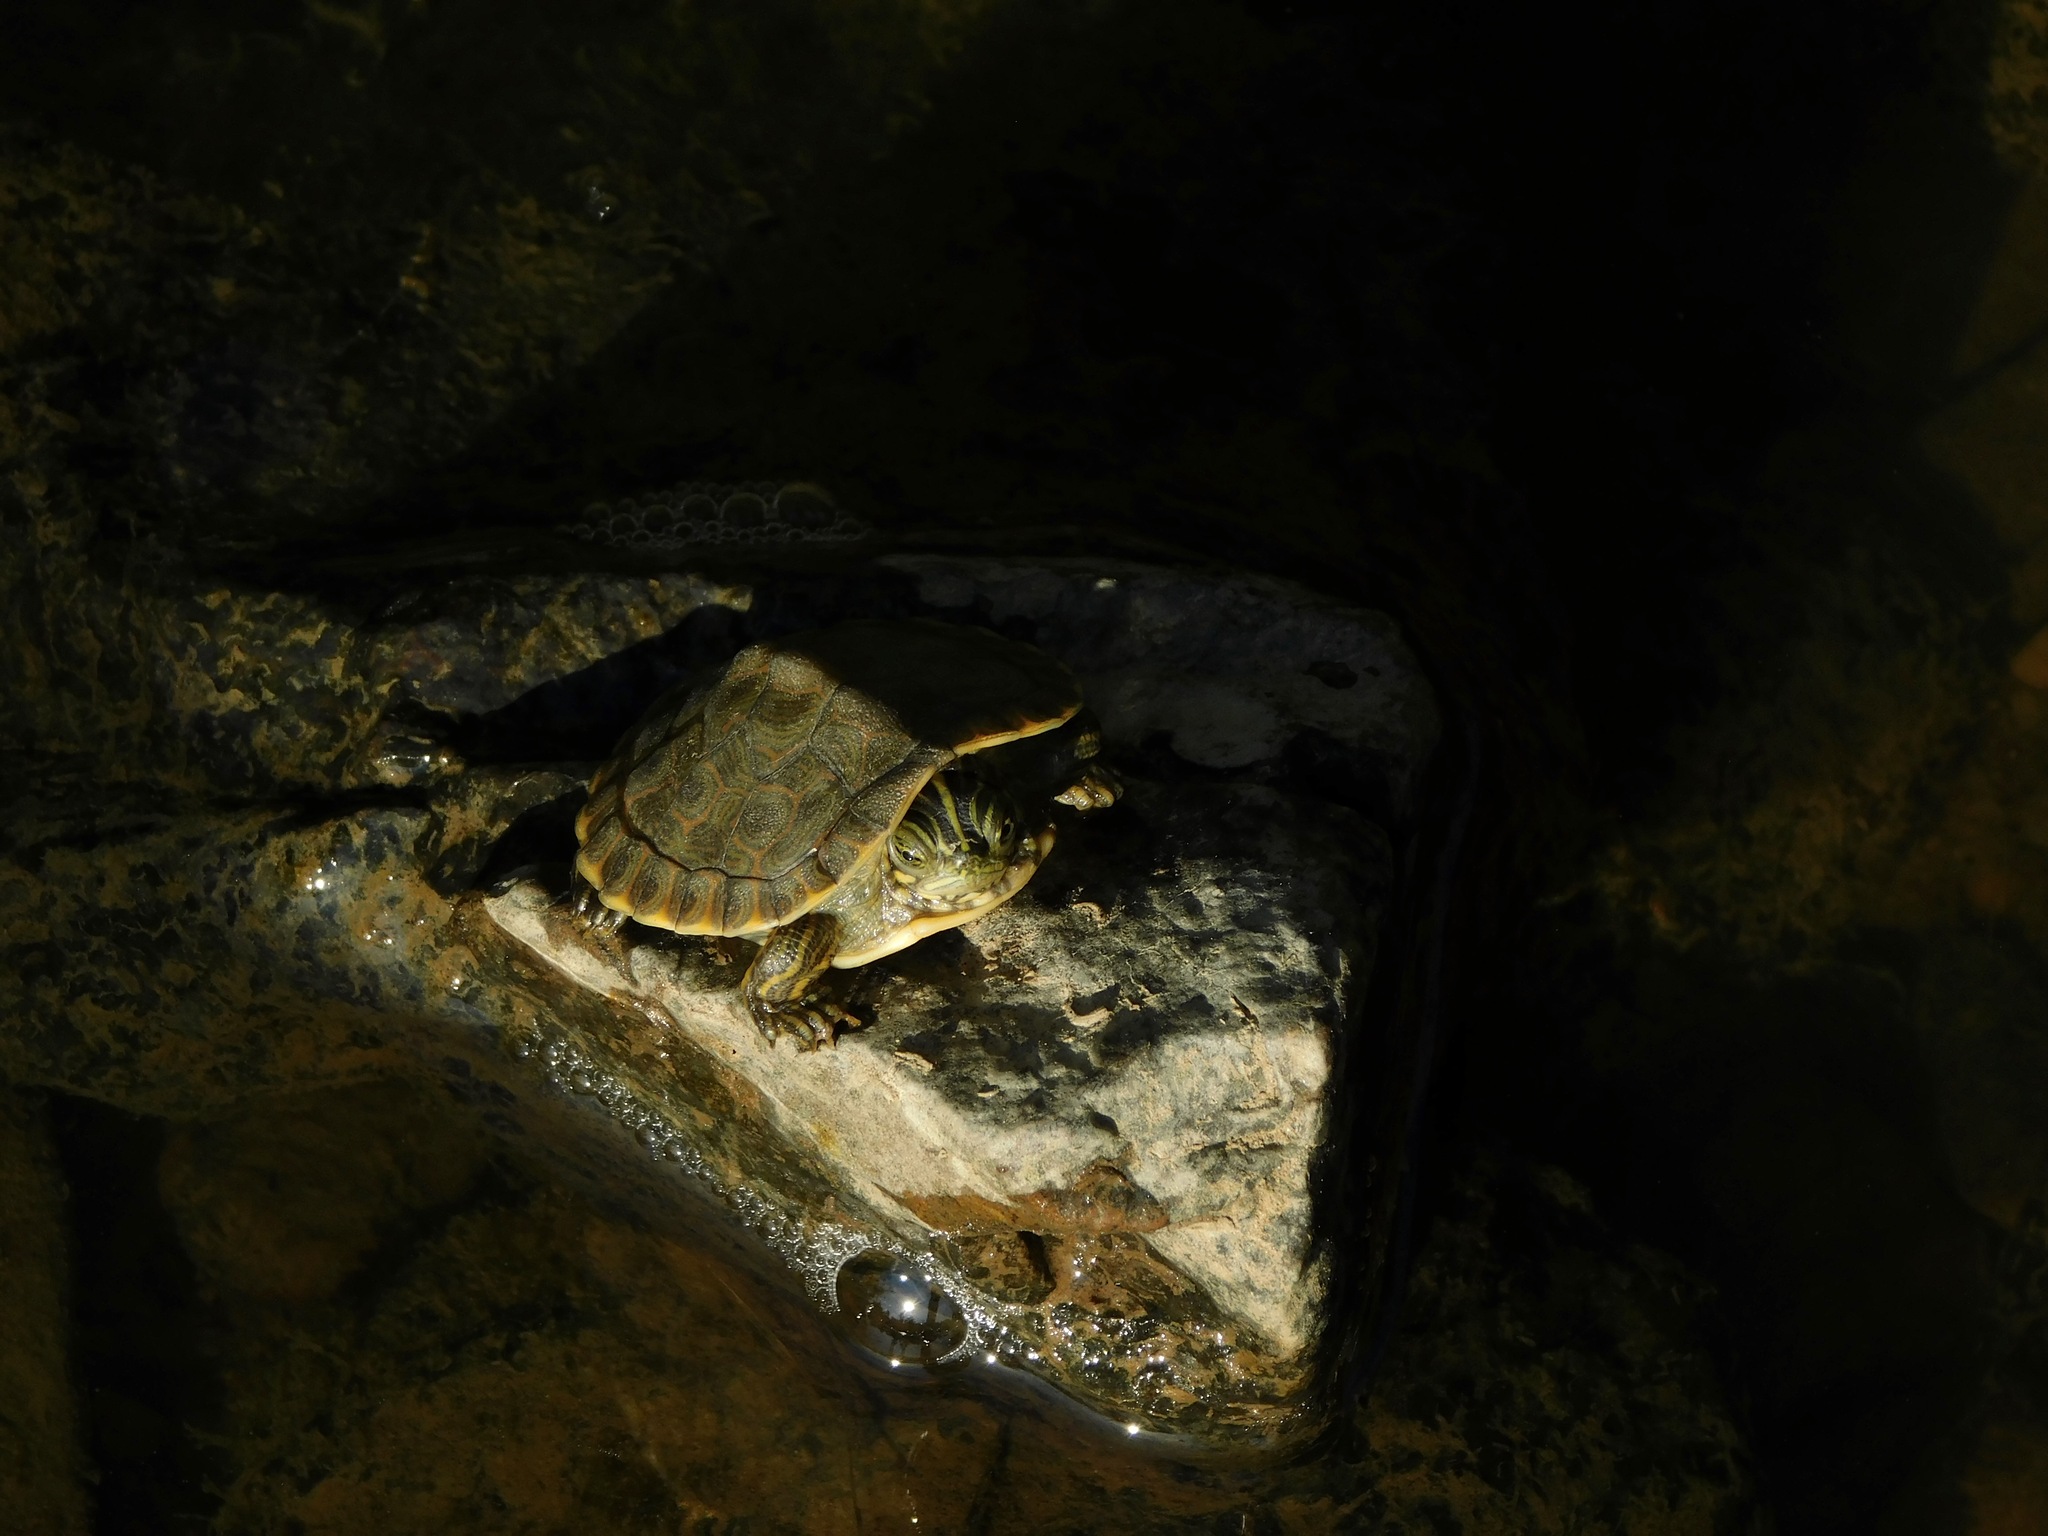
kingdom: Animalia
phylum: Chordata
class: Testudines
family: Emydidae
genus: Pseudemys
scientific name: Pseudemys concinna
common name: Eastern river cooter
